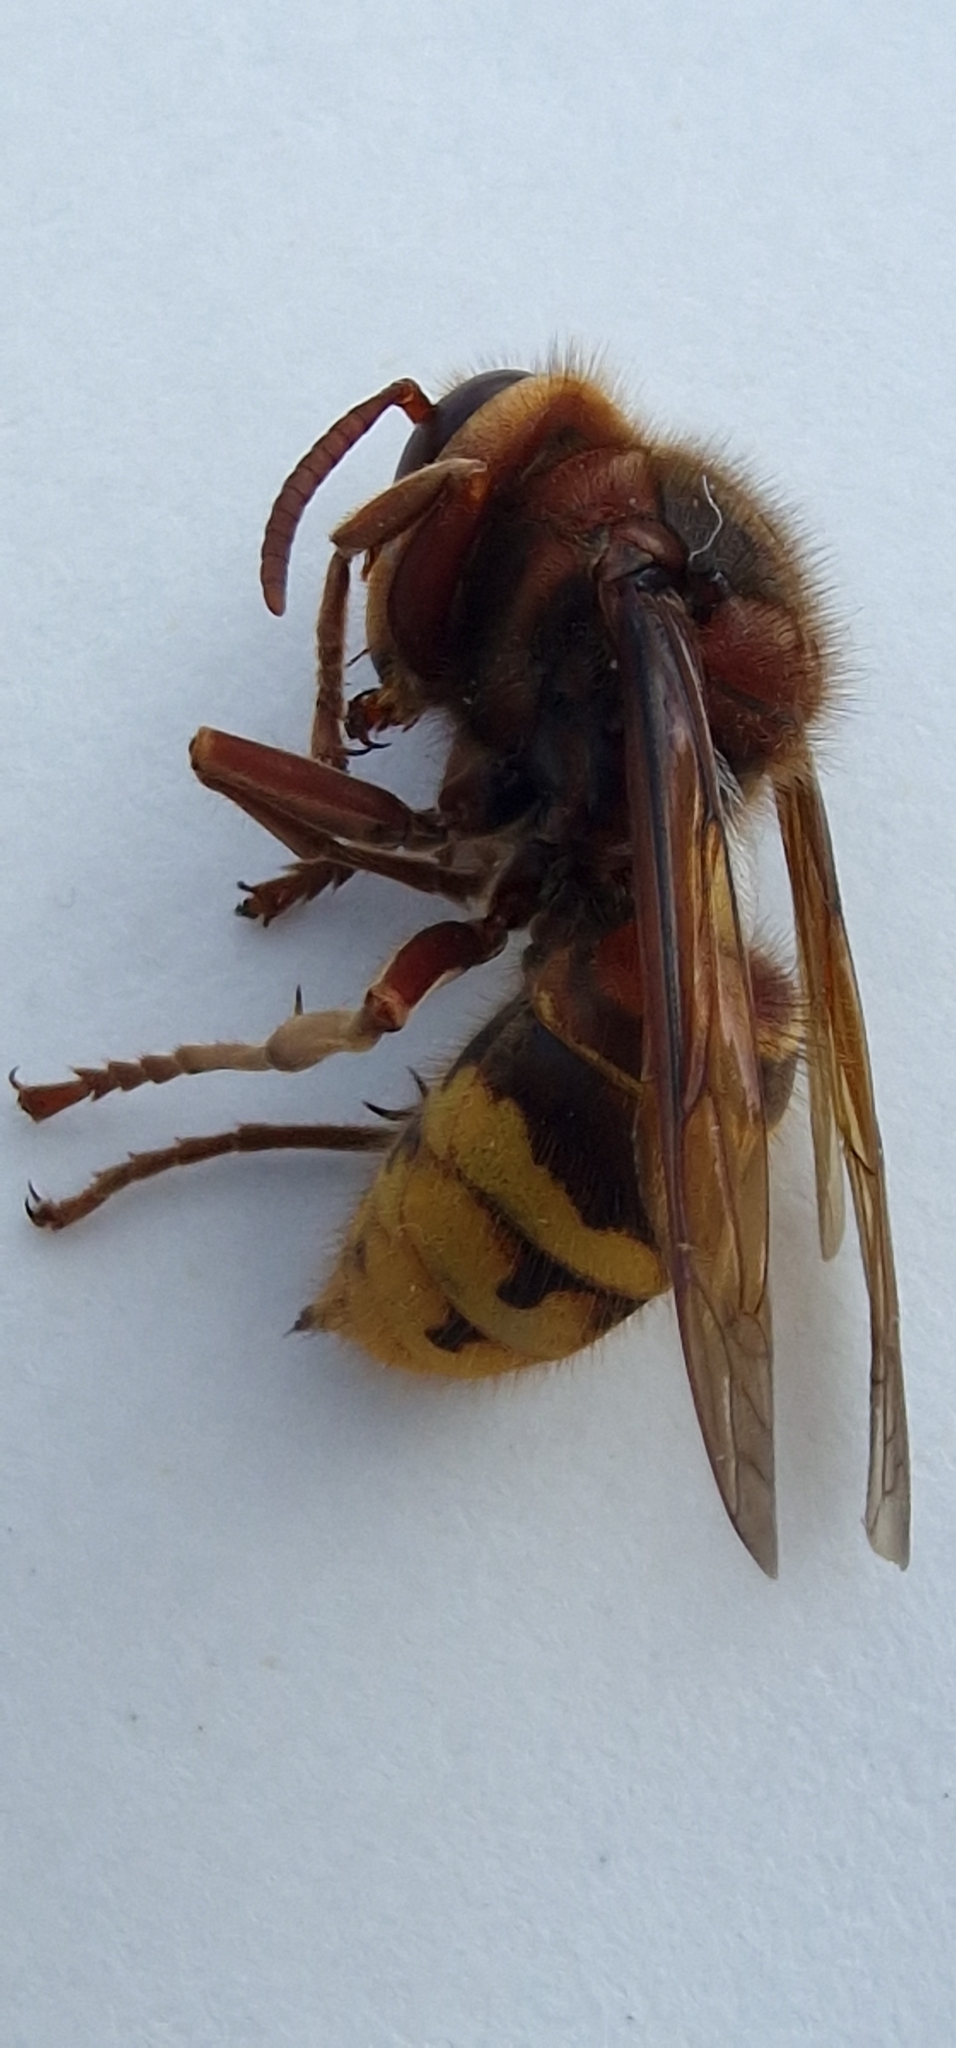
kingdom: Animalia
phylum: Arthropoda
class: Insecta
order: Hymenoptera
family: Vespidae
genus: Vespa
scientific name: Vespa crabro
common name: Hornet
